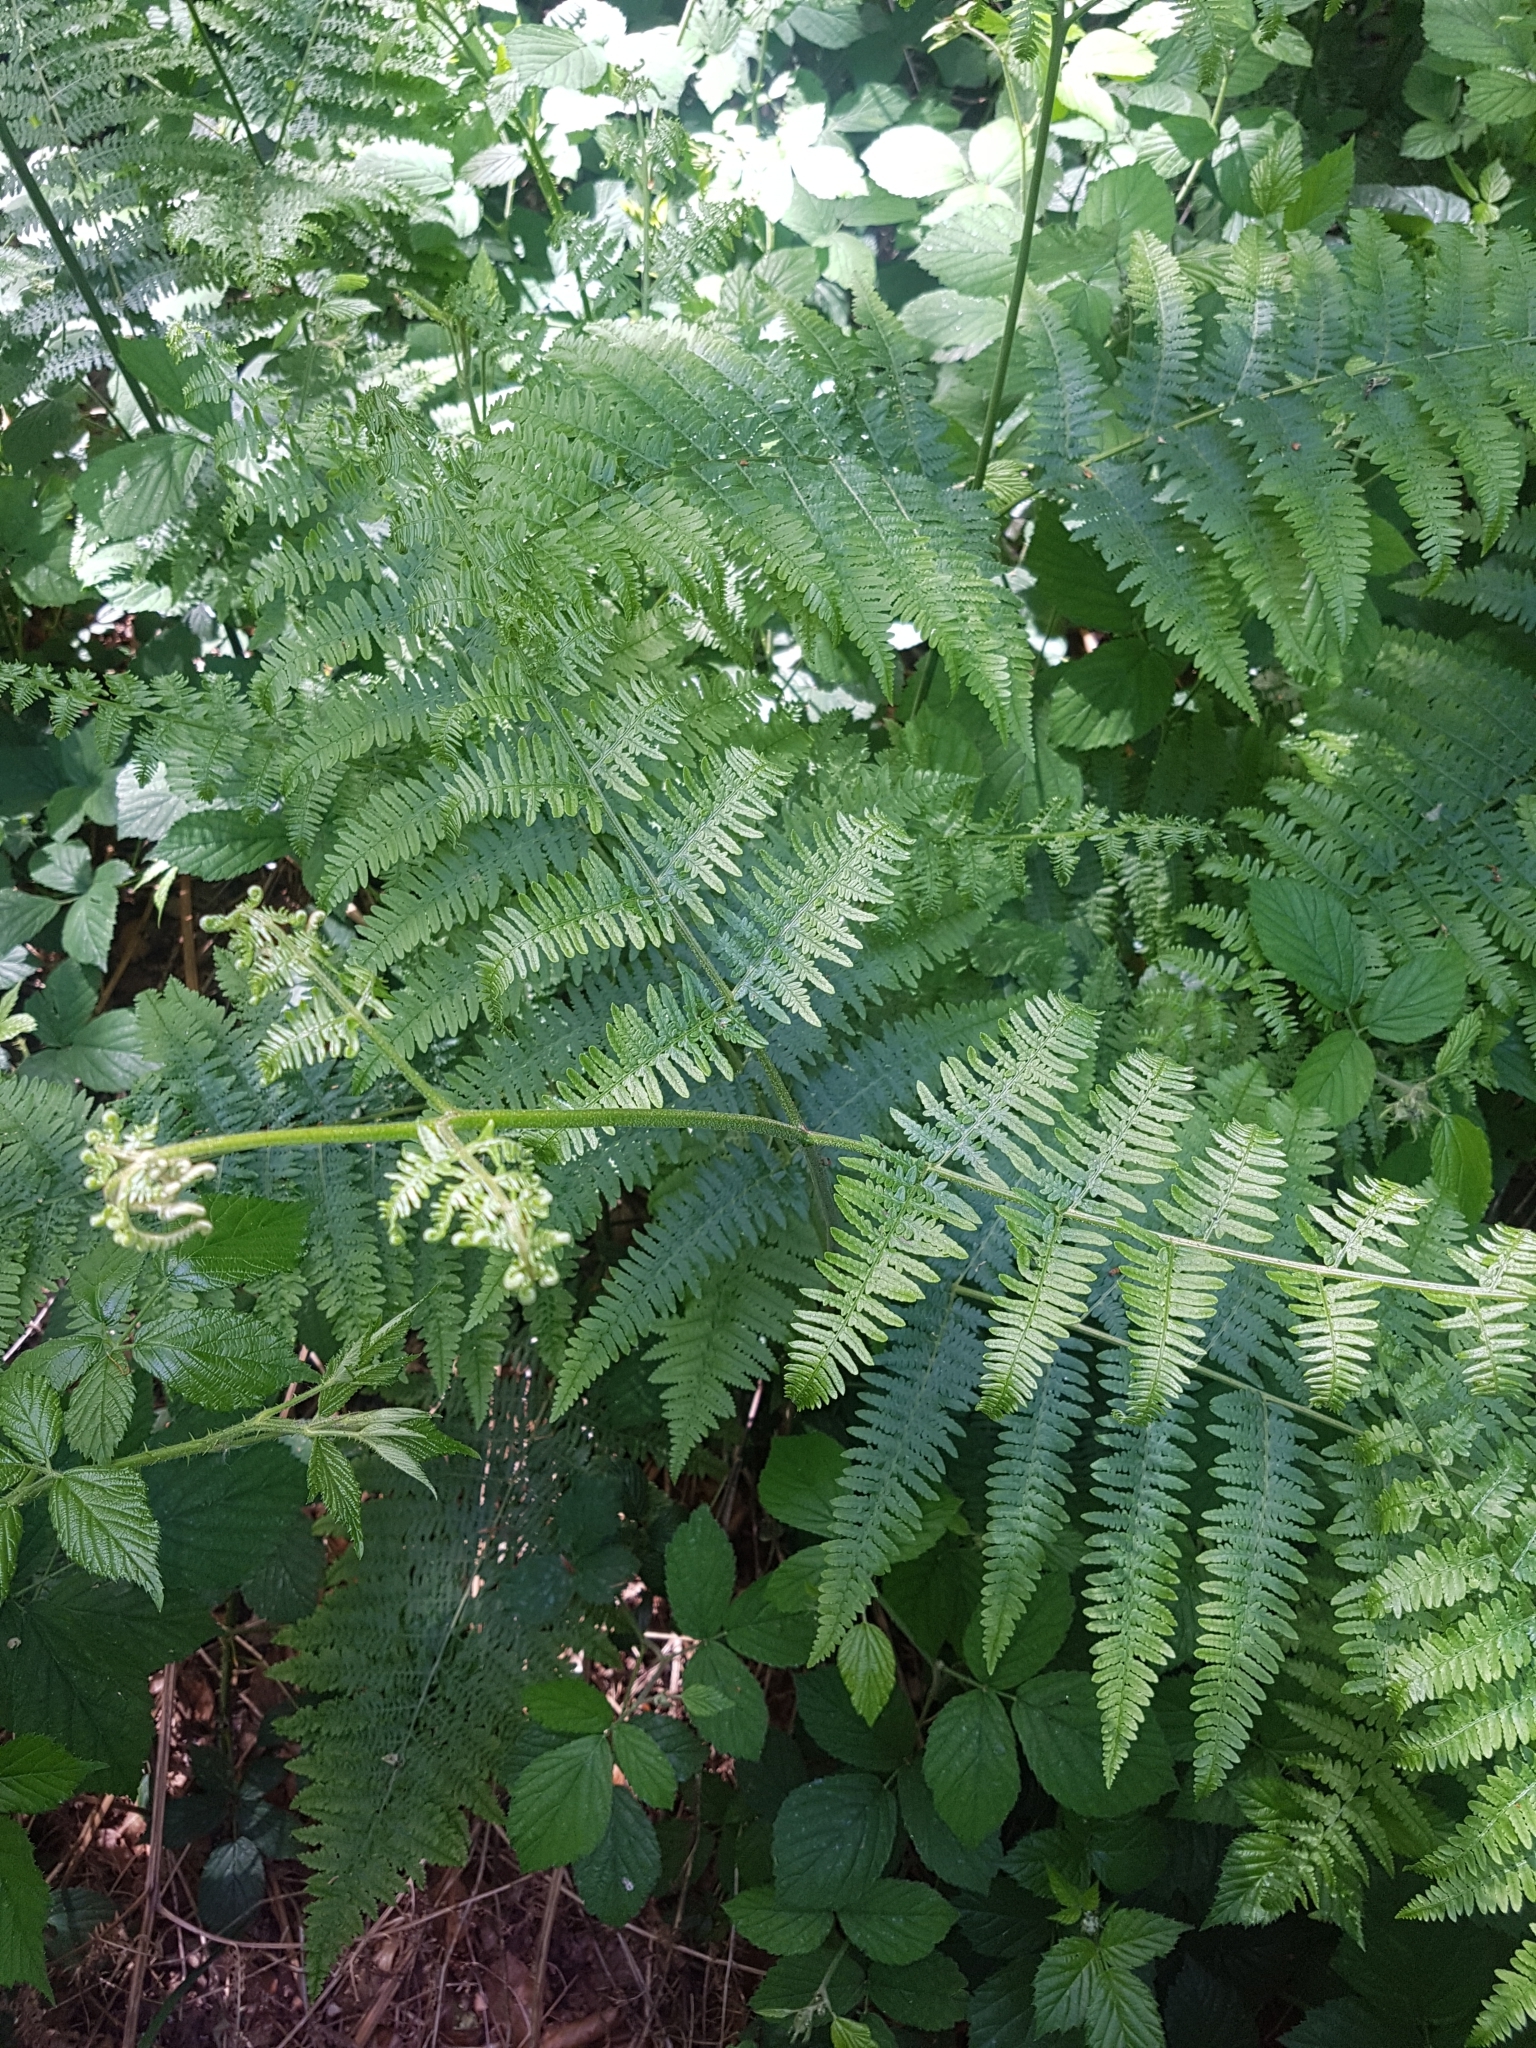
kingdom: Plantae
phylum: Tracheophyta
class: Polypodiopsida
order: Polypodiales
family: Dennstaedtiaceae
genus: Pteridium
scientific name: Pteridium aquilinum
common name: Bracken
